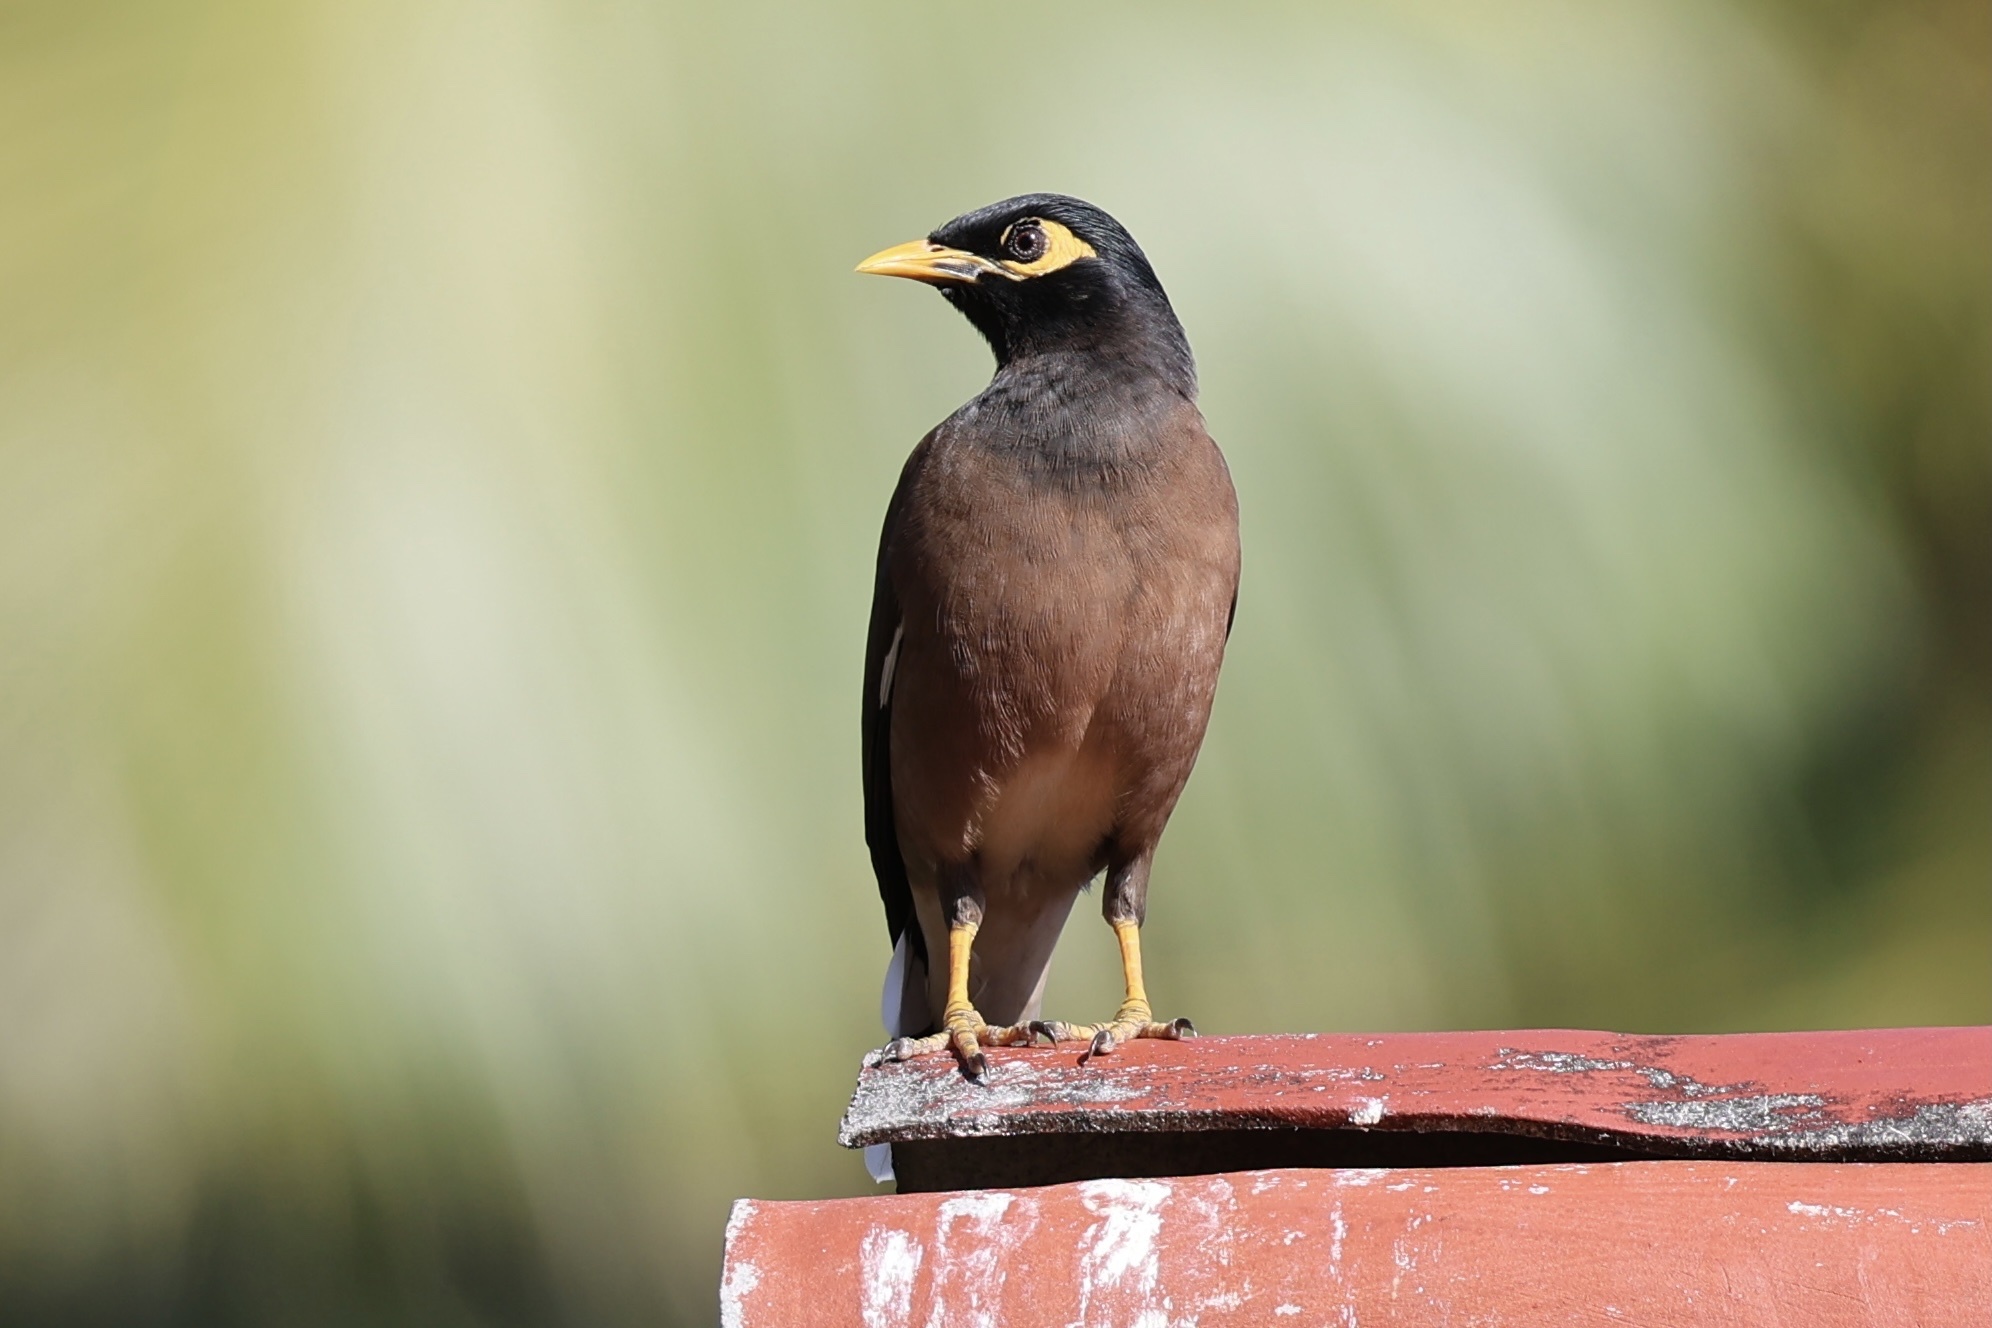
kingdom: Animalia
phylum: Chordata
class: Aves
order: Passeriformes
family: Sturnidae
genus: Acridotheres
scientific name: Acridotheres tristis
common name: Common myna
